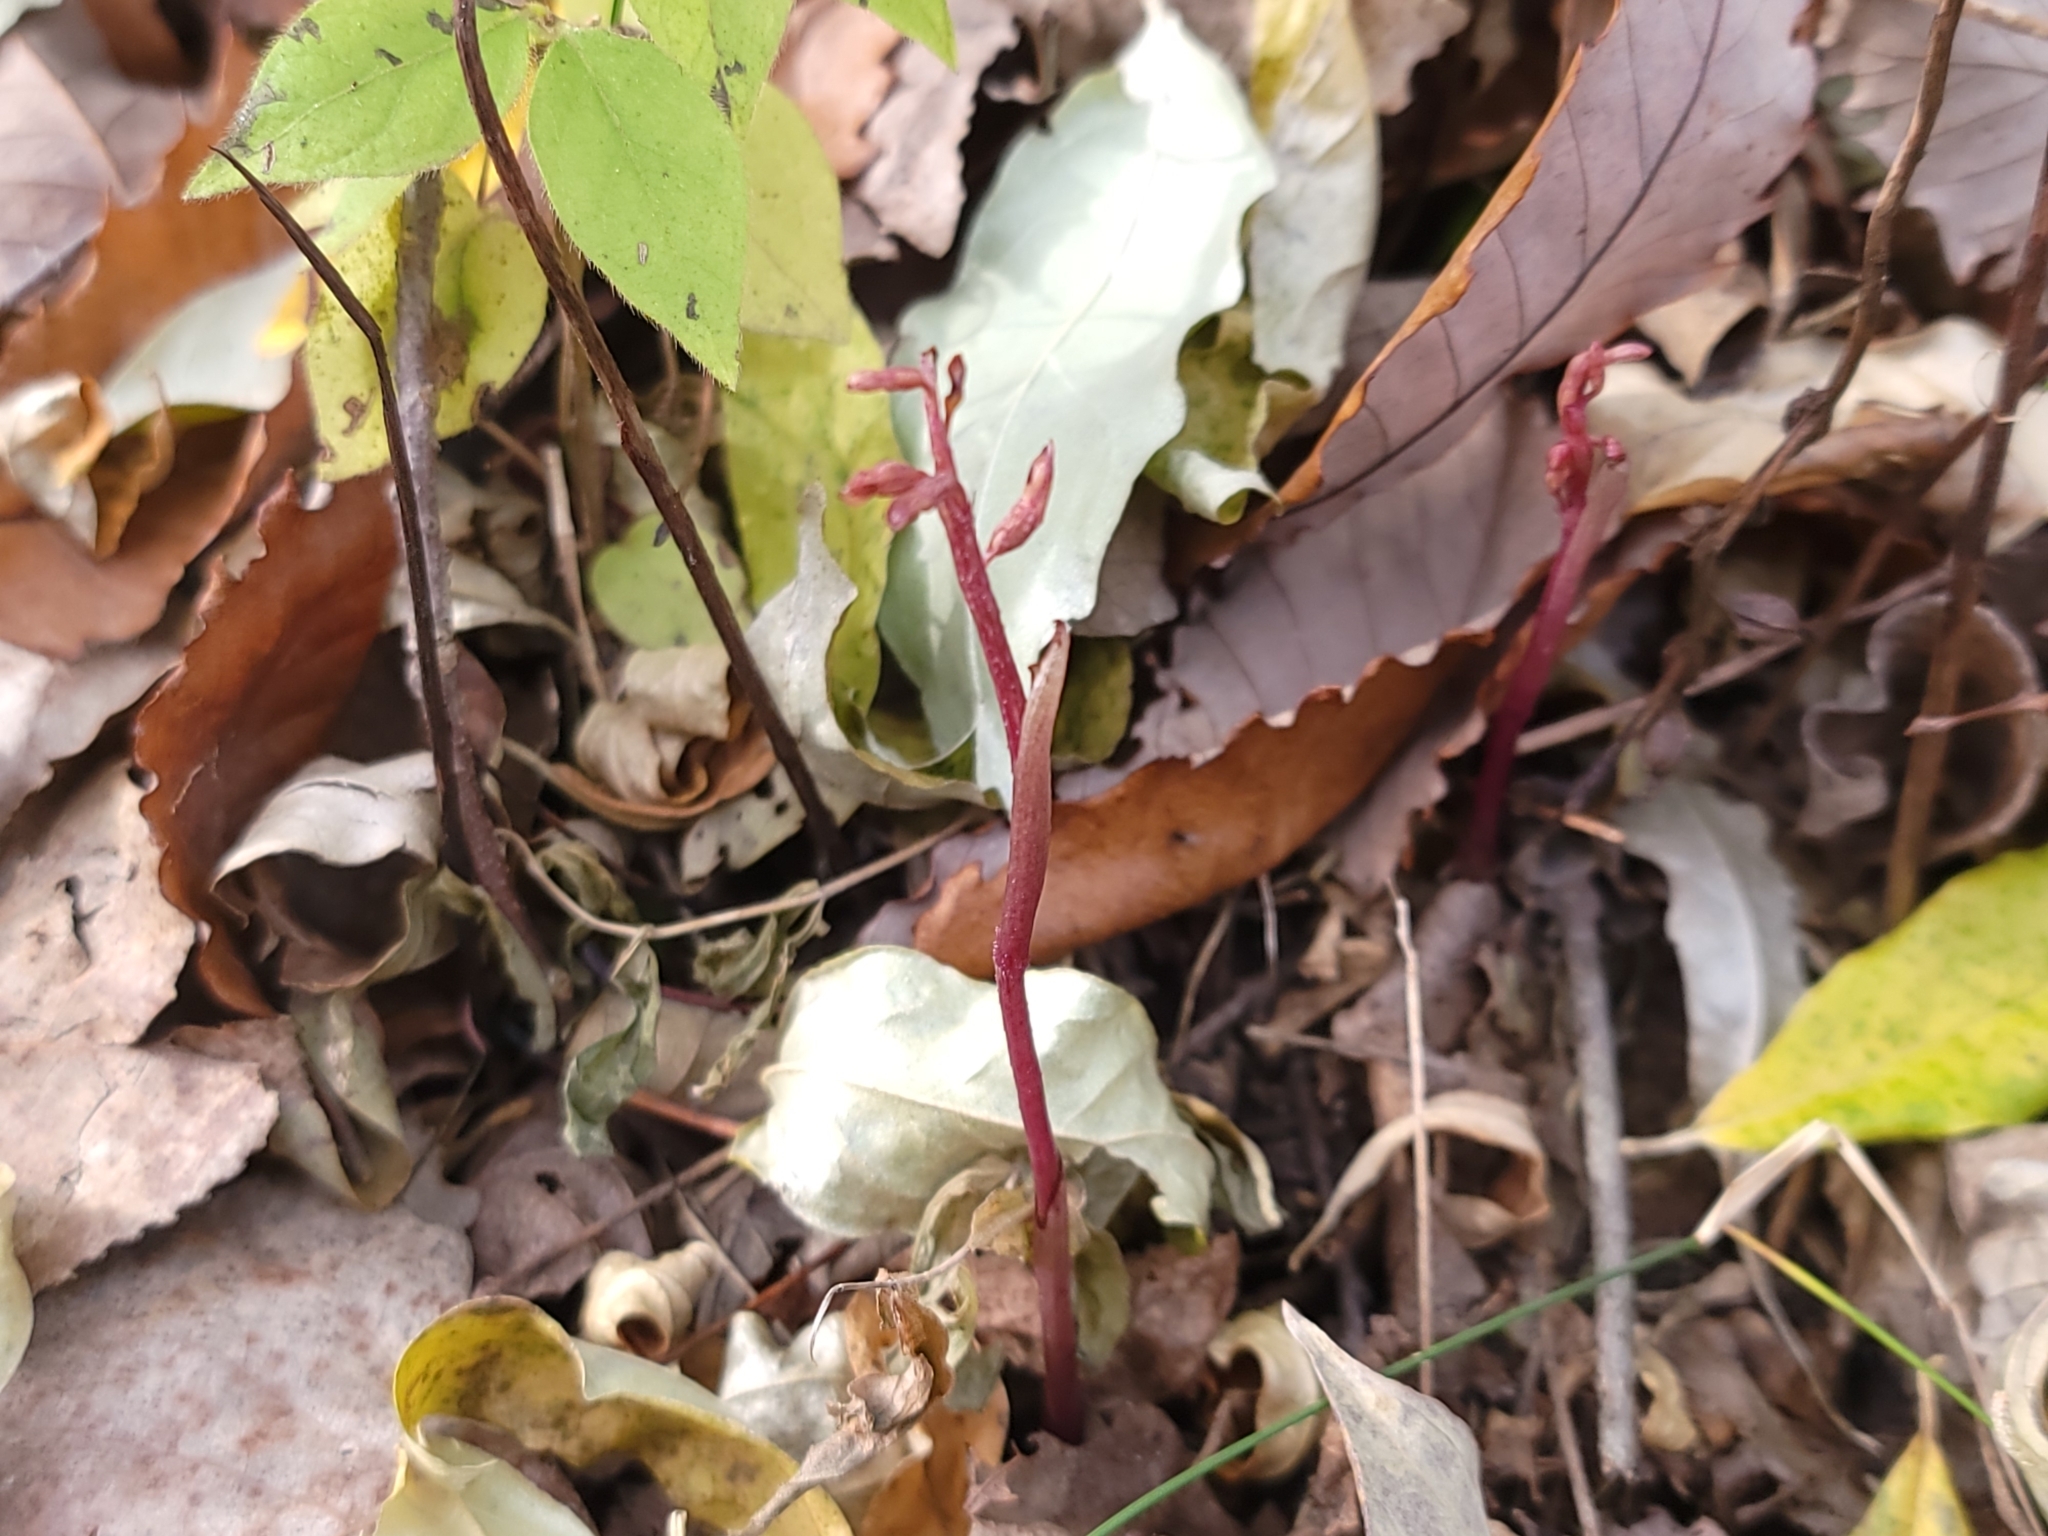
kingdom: Plantae
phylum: Tracheophyta
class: Liliopsida
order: Asparagales
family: Orchidaceae
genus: Corallorhiza
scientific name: Corallorhiza odontorhiza
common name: Autumn coralroot
